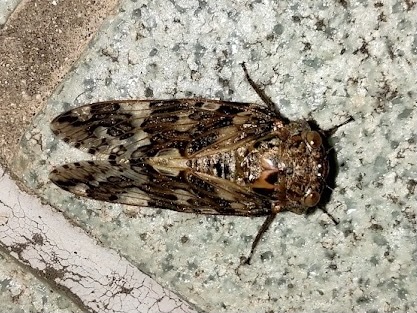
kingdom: Animalia
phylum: Arthropoda
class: Insecta
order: Hemiptera
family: Cicadidae
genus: Platypleura
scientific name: Platypleura kaempferi
